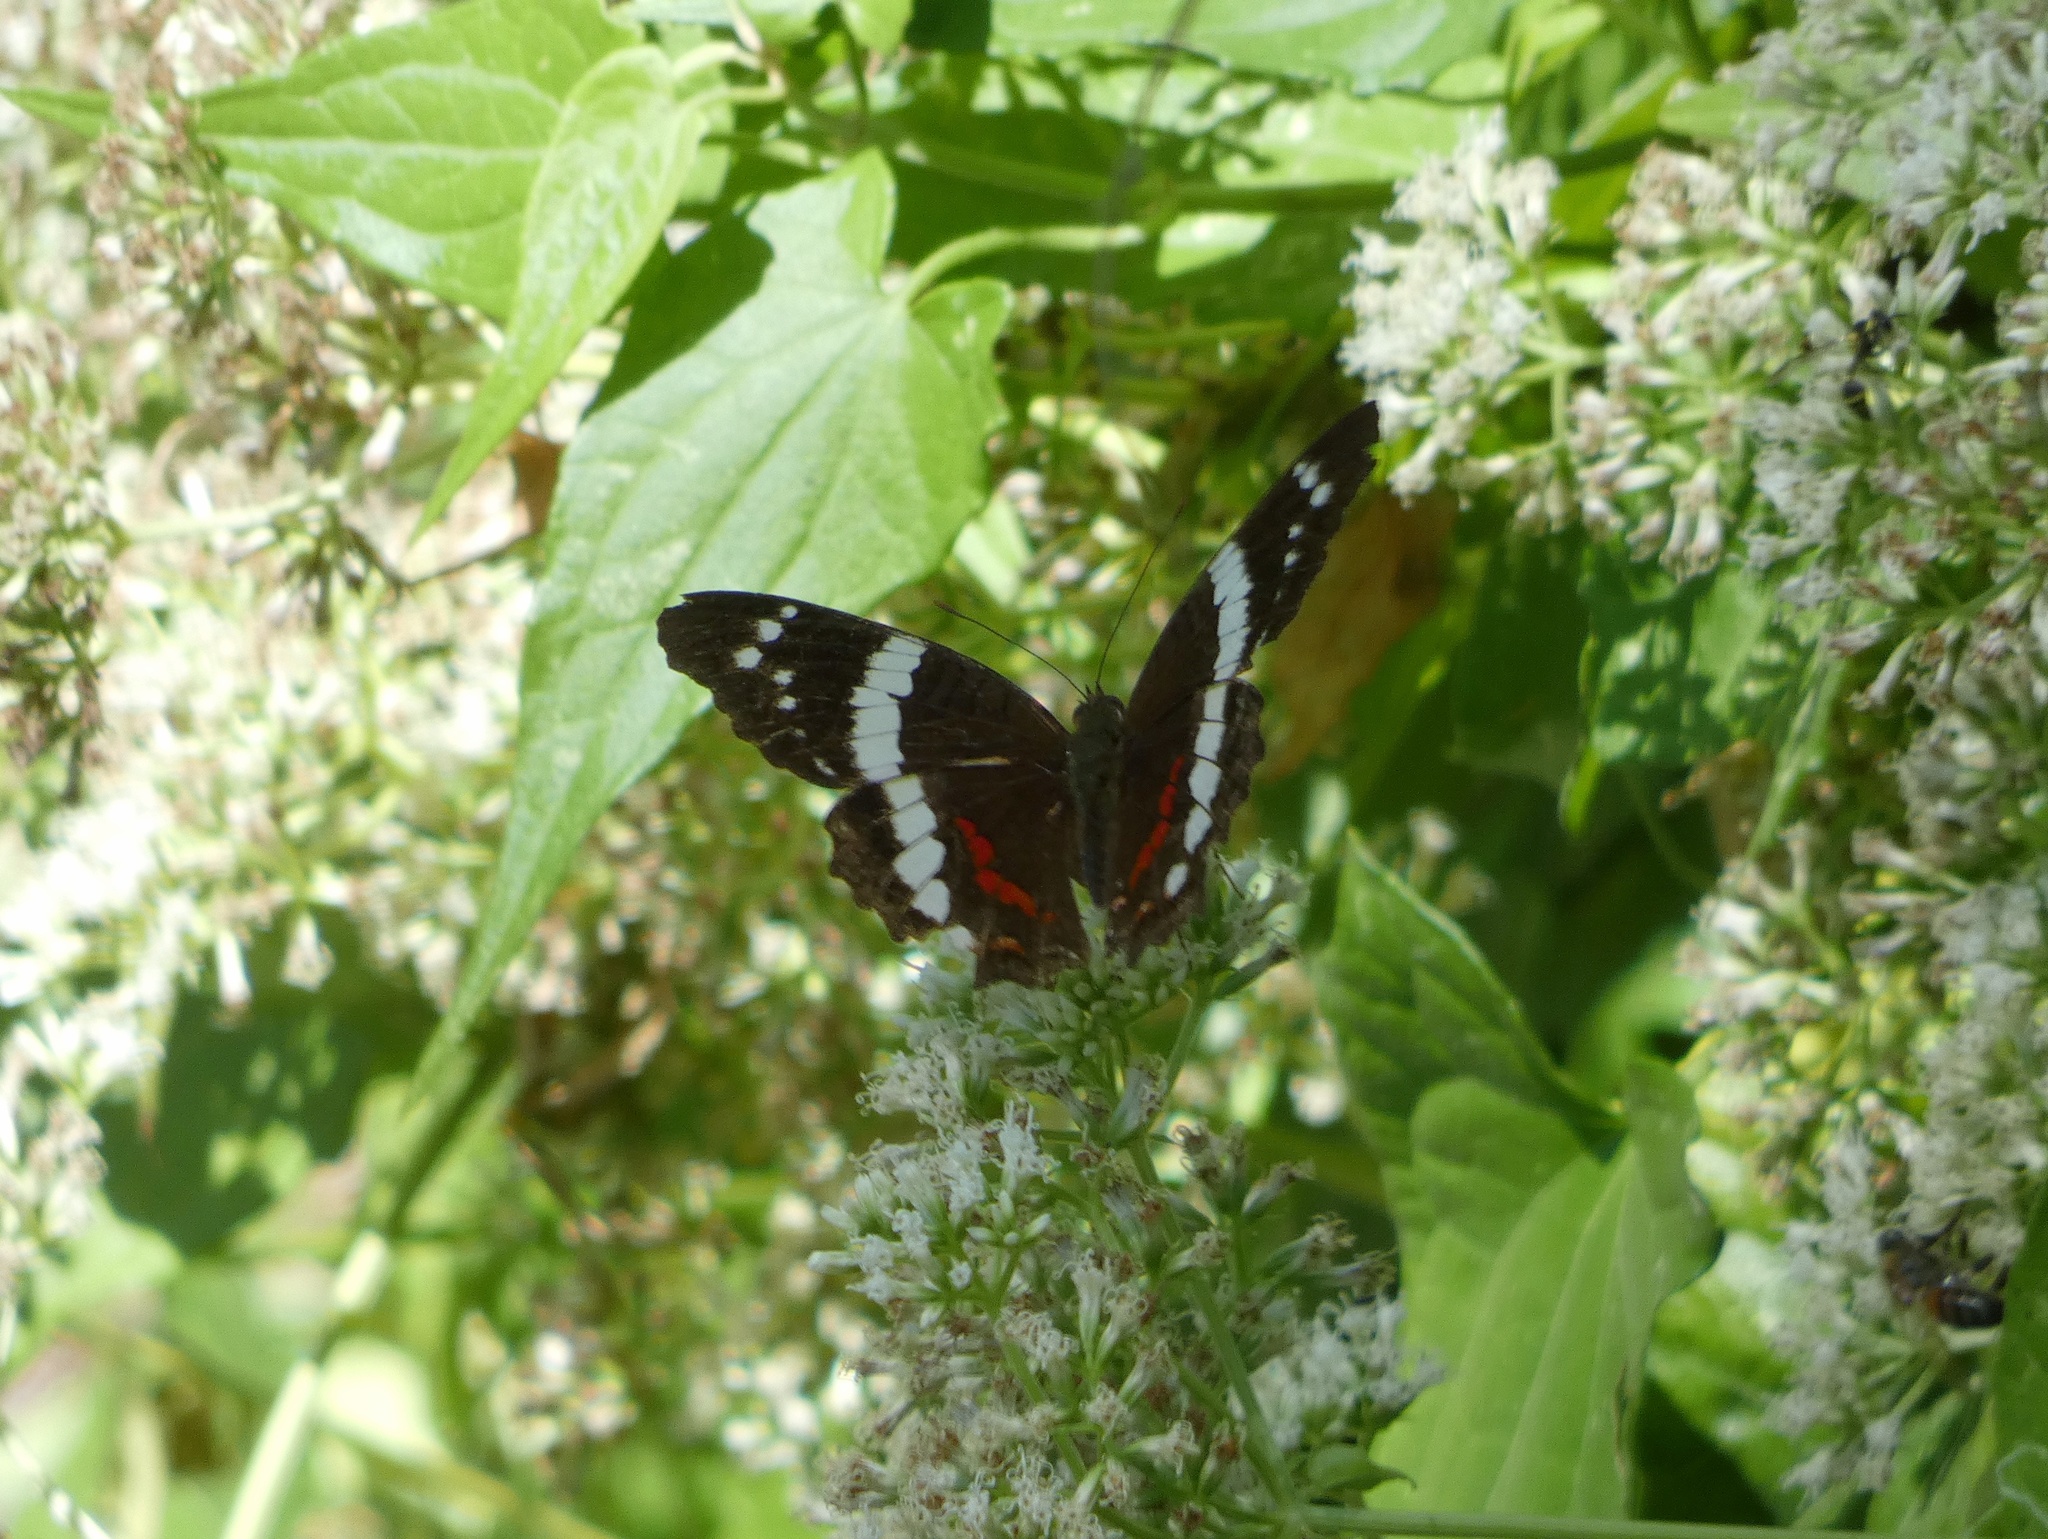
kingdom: Animalia
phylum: Arthropoda
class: Insecta
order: Lepidoptera
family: Nymphalidae
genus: Anartia
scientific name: Anartia fatima
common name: Banded peacock
